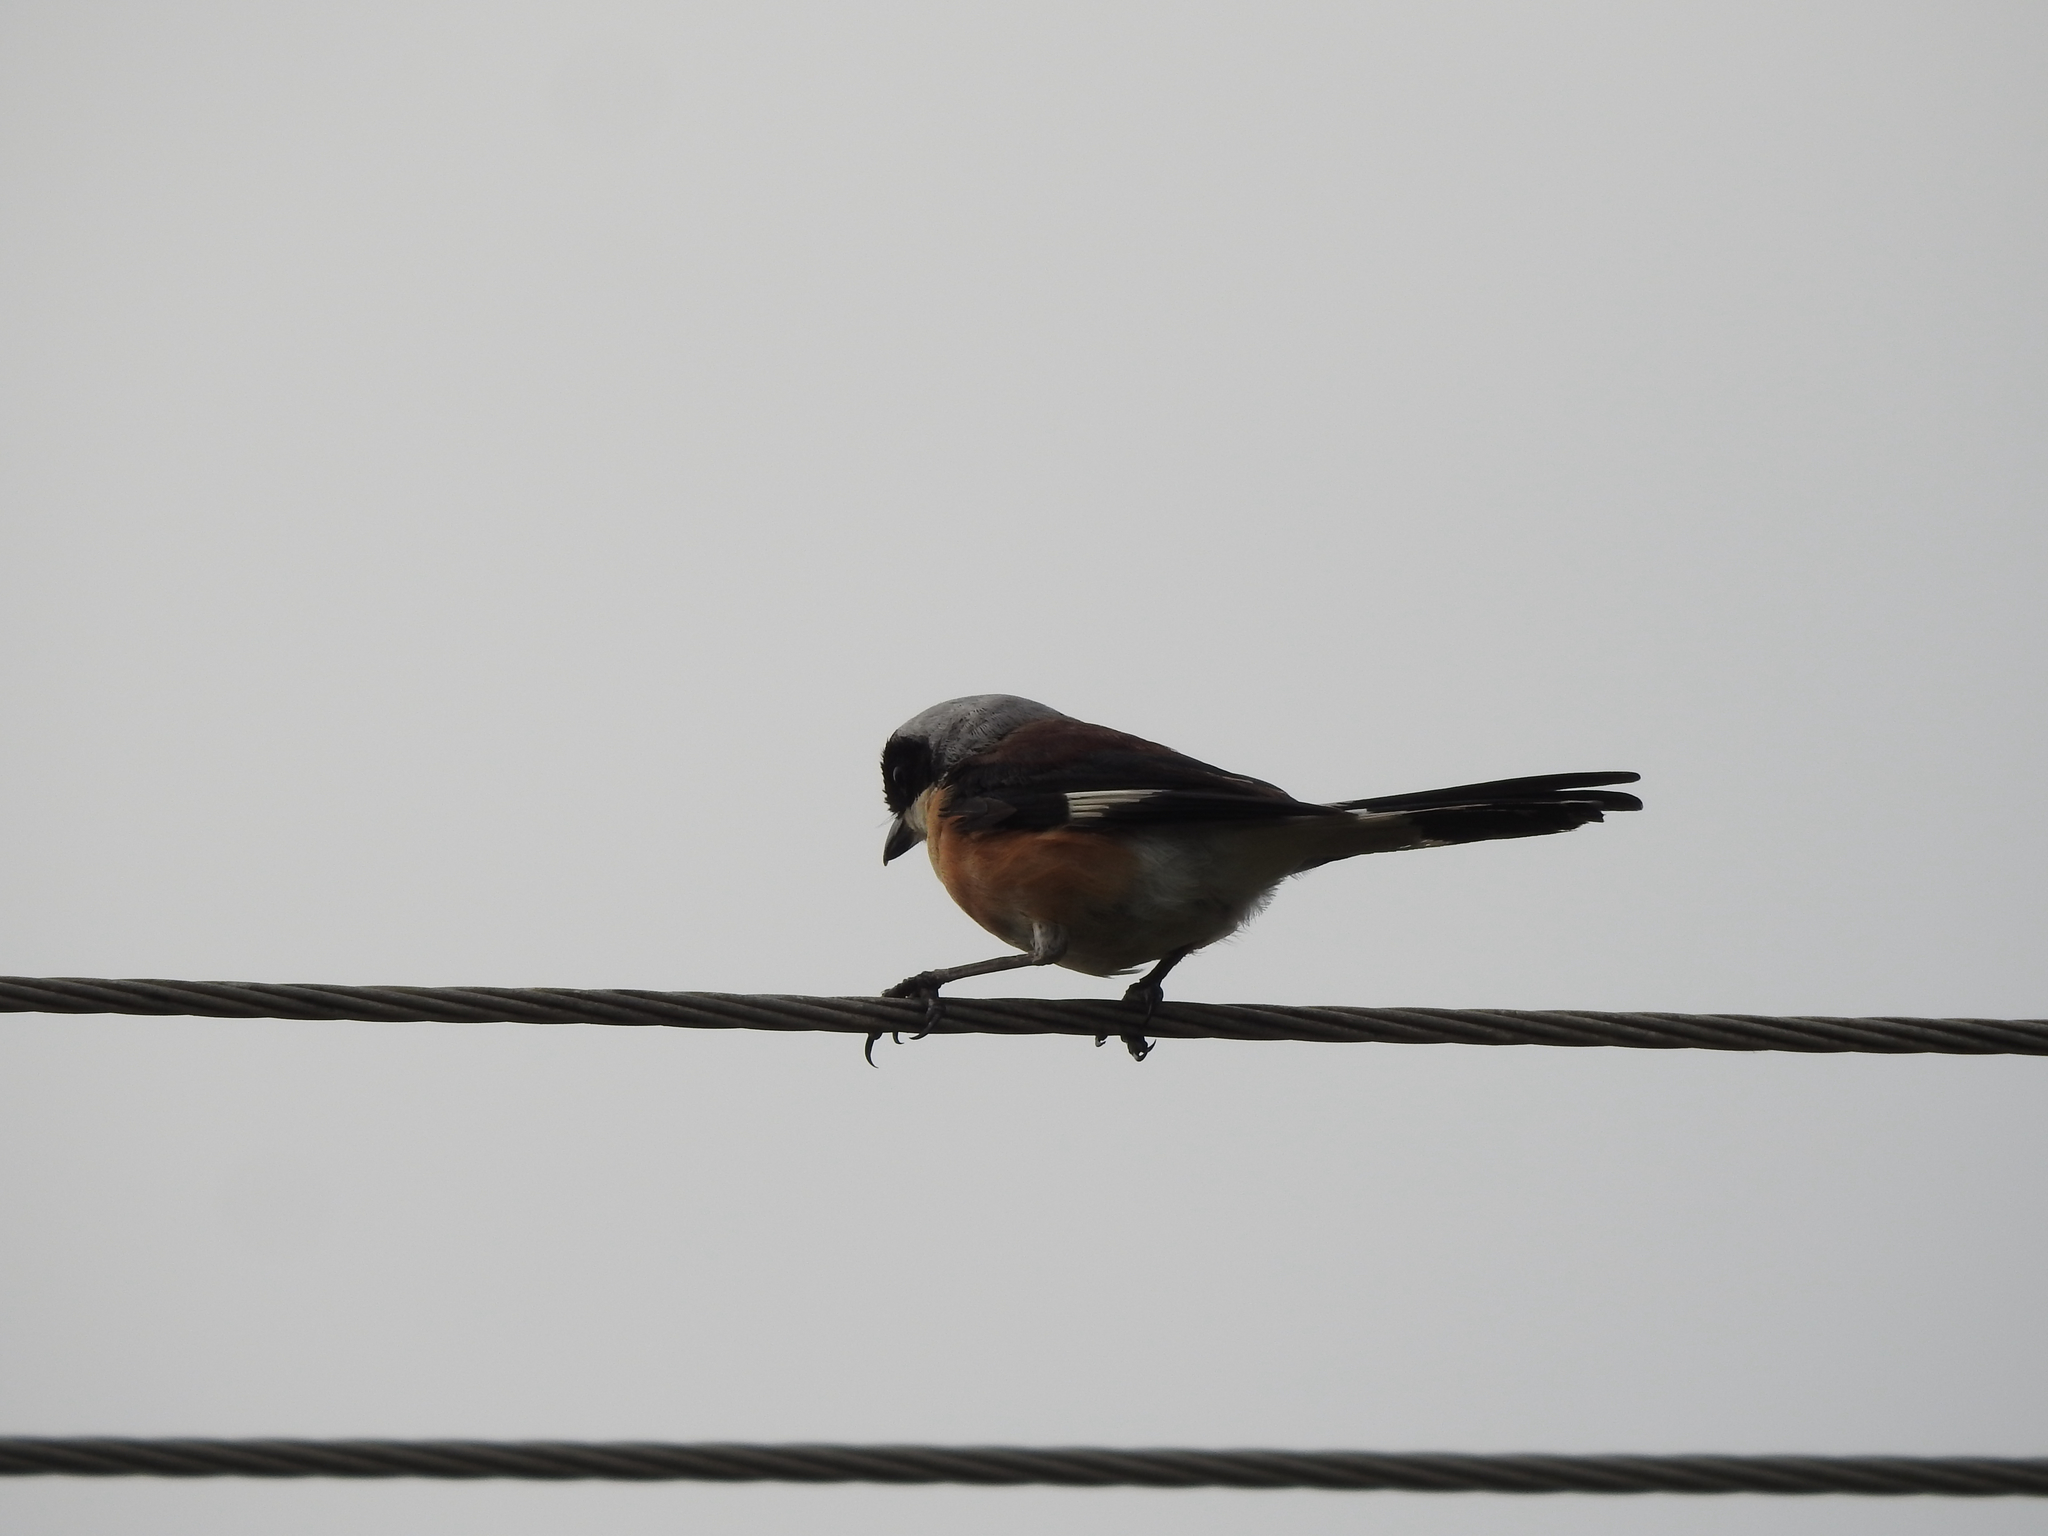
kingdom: Animalia
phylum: Chordata
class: Aves
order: Passeriformes
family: Laniidae
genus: Lanius
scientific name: Lanius vittatus
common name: Bay-backed shrike
